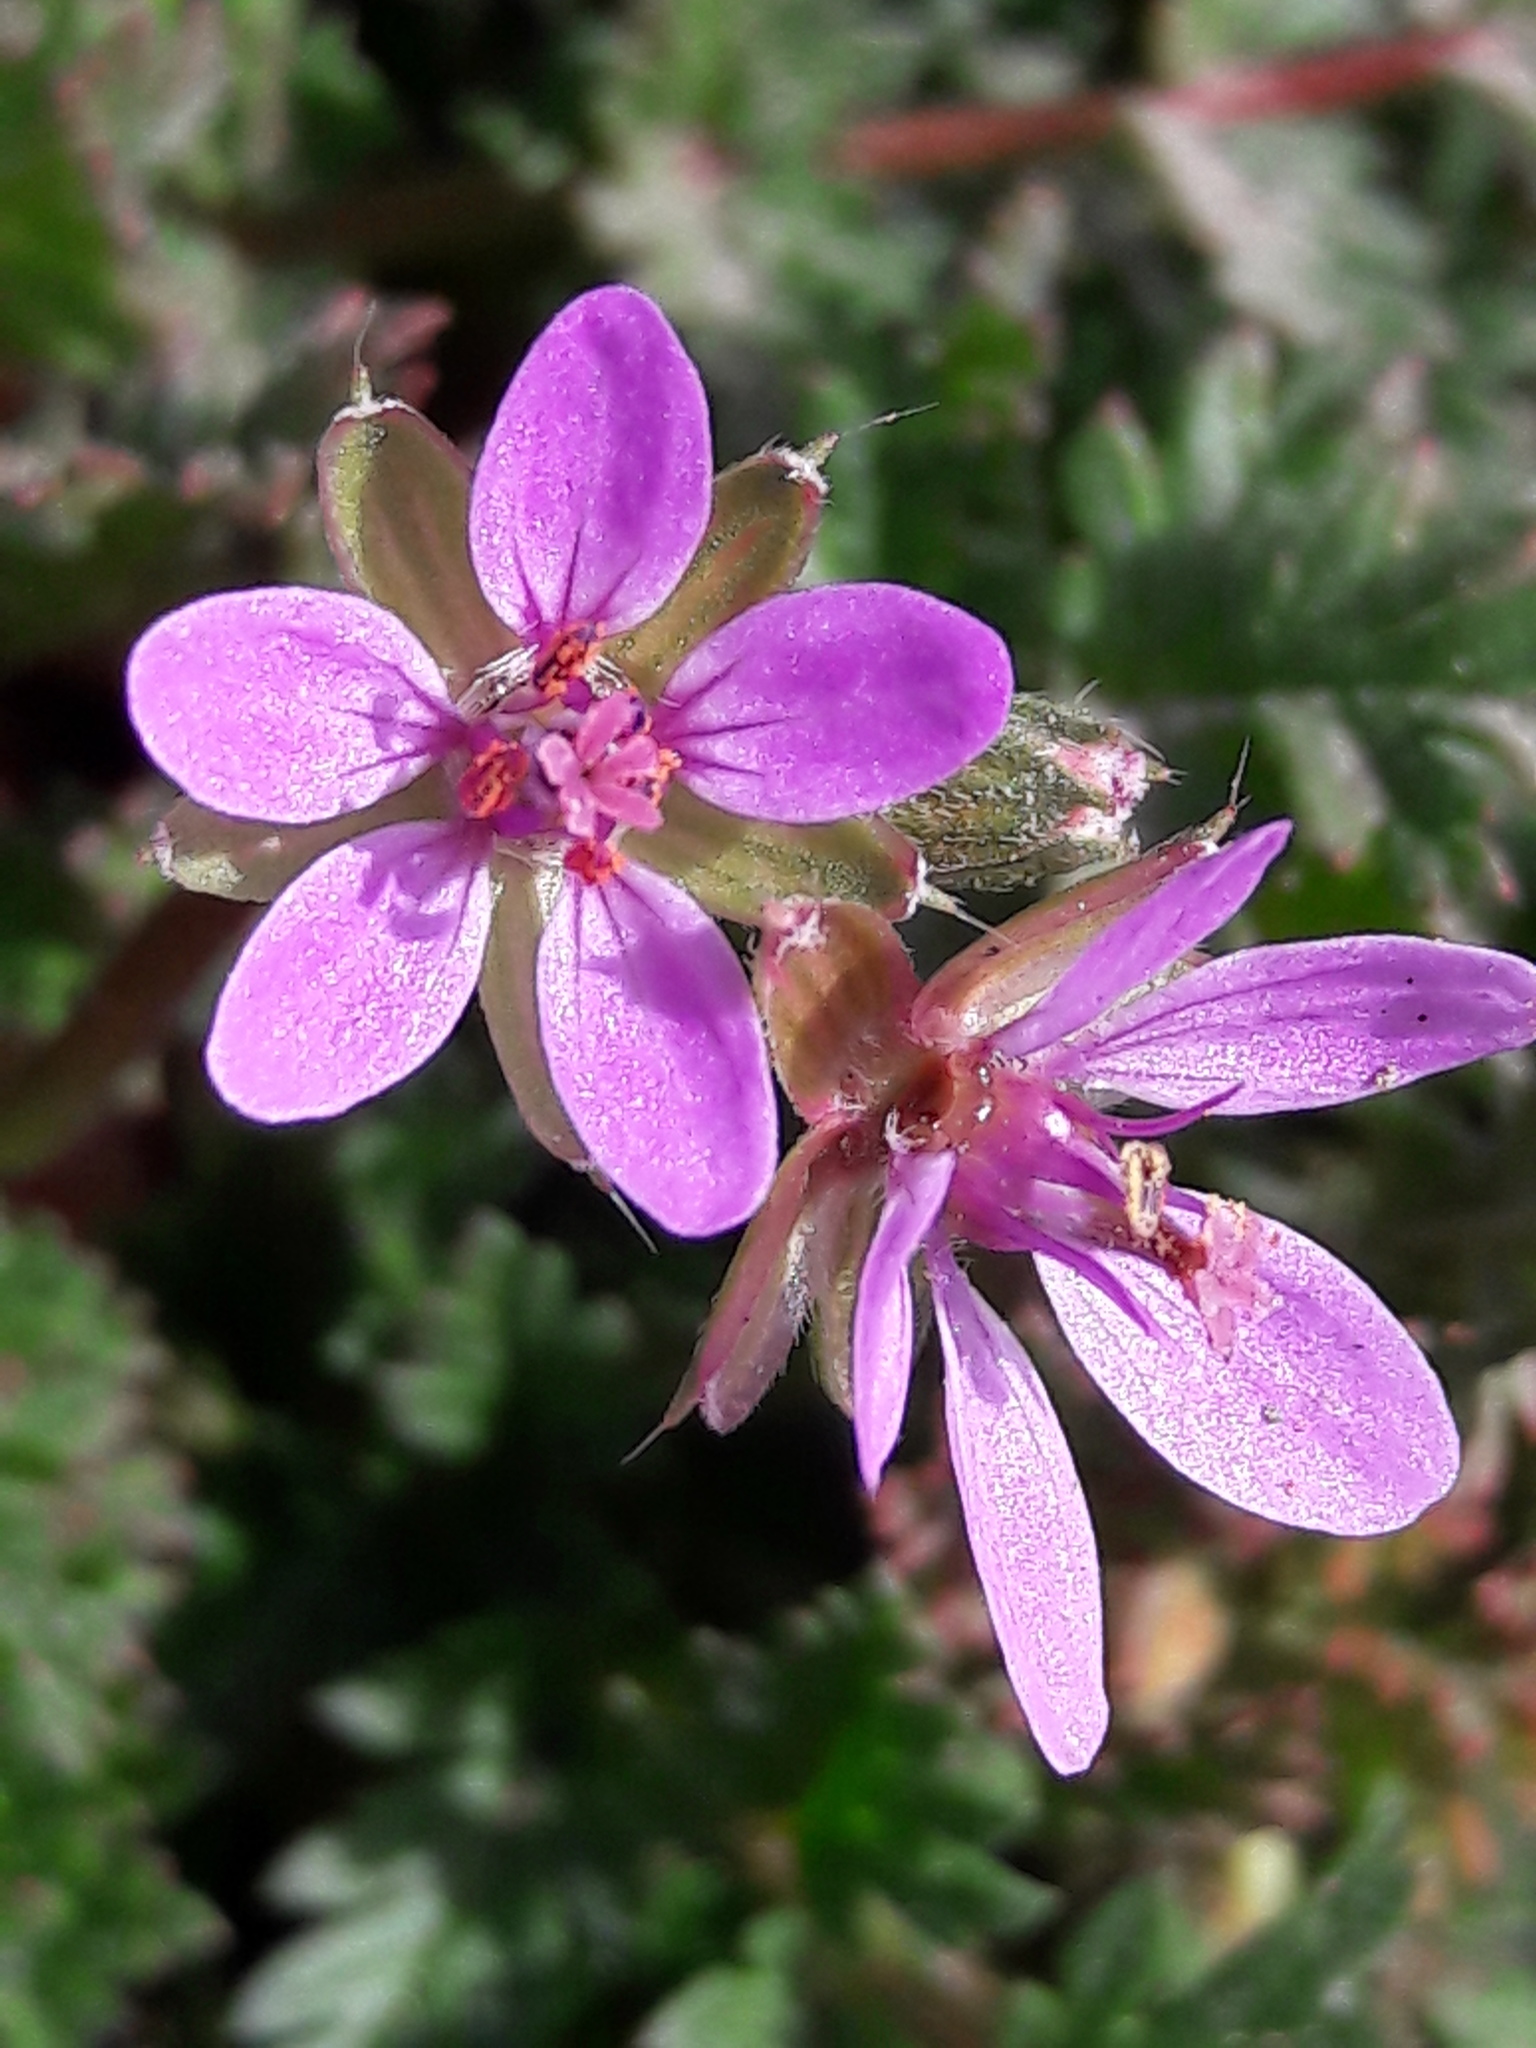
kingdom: Plantae
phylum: Tracheophyta
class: Magnoliopsida
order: Geraniales
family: Geraniaceae
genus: Erodium
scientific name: Erodium cicutarium
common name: Common stork's-bill
